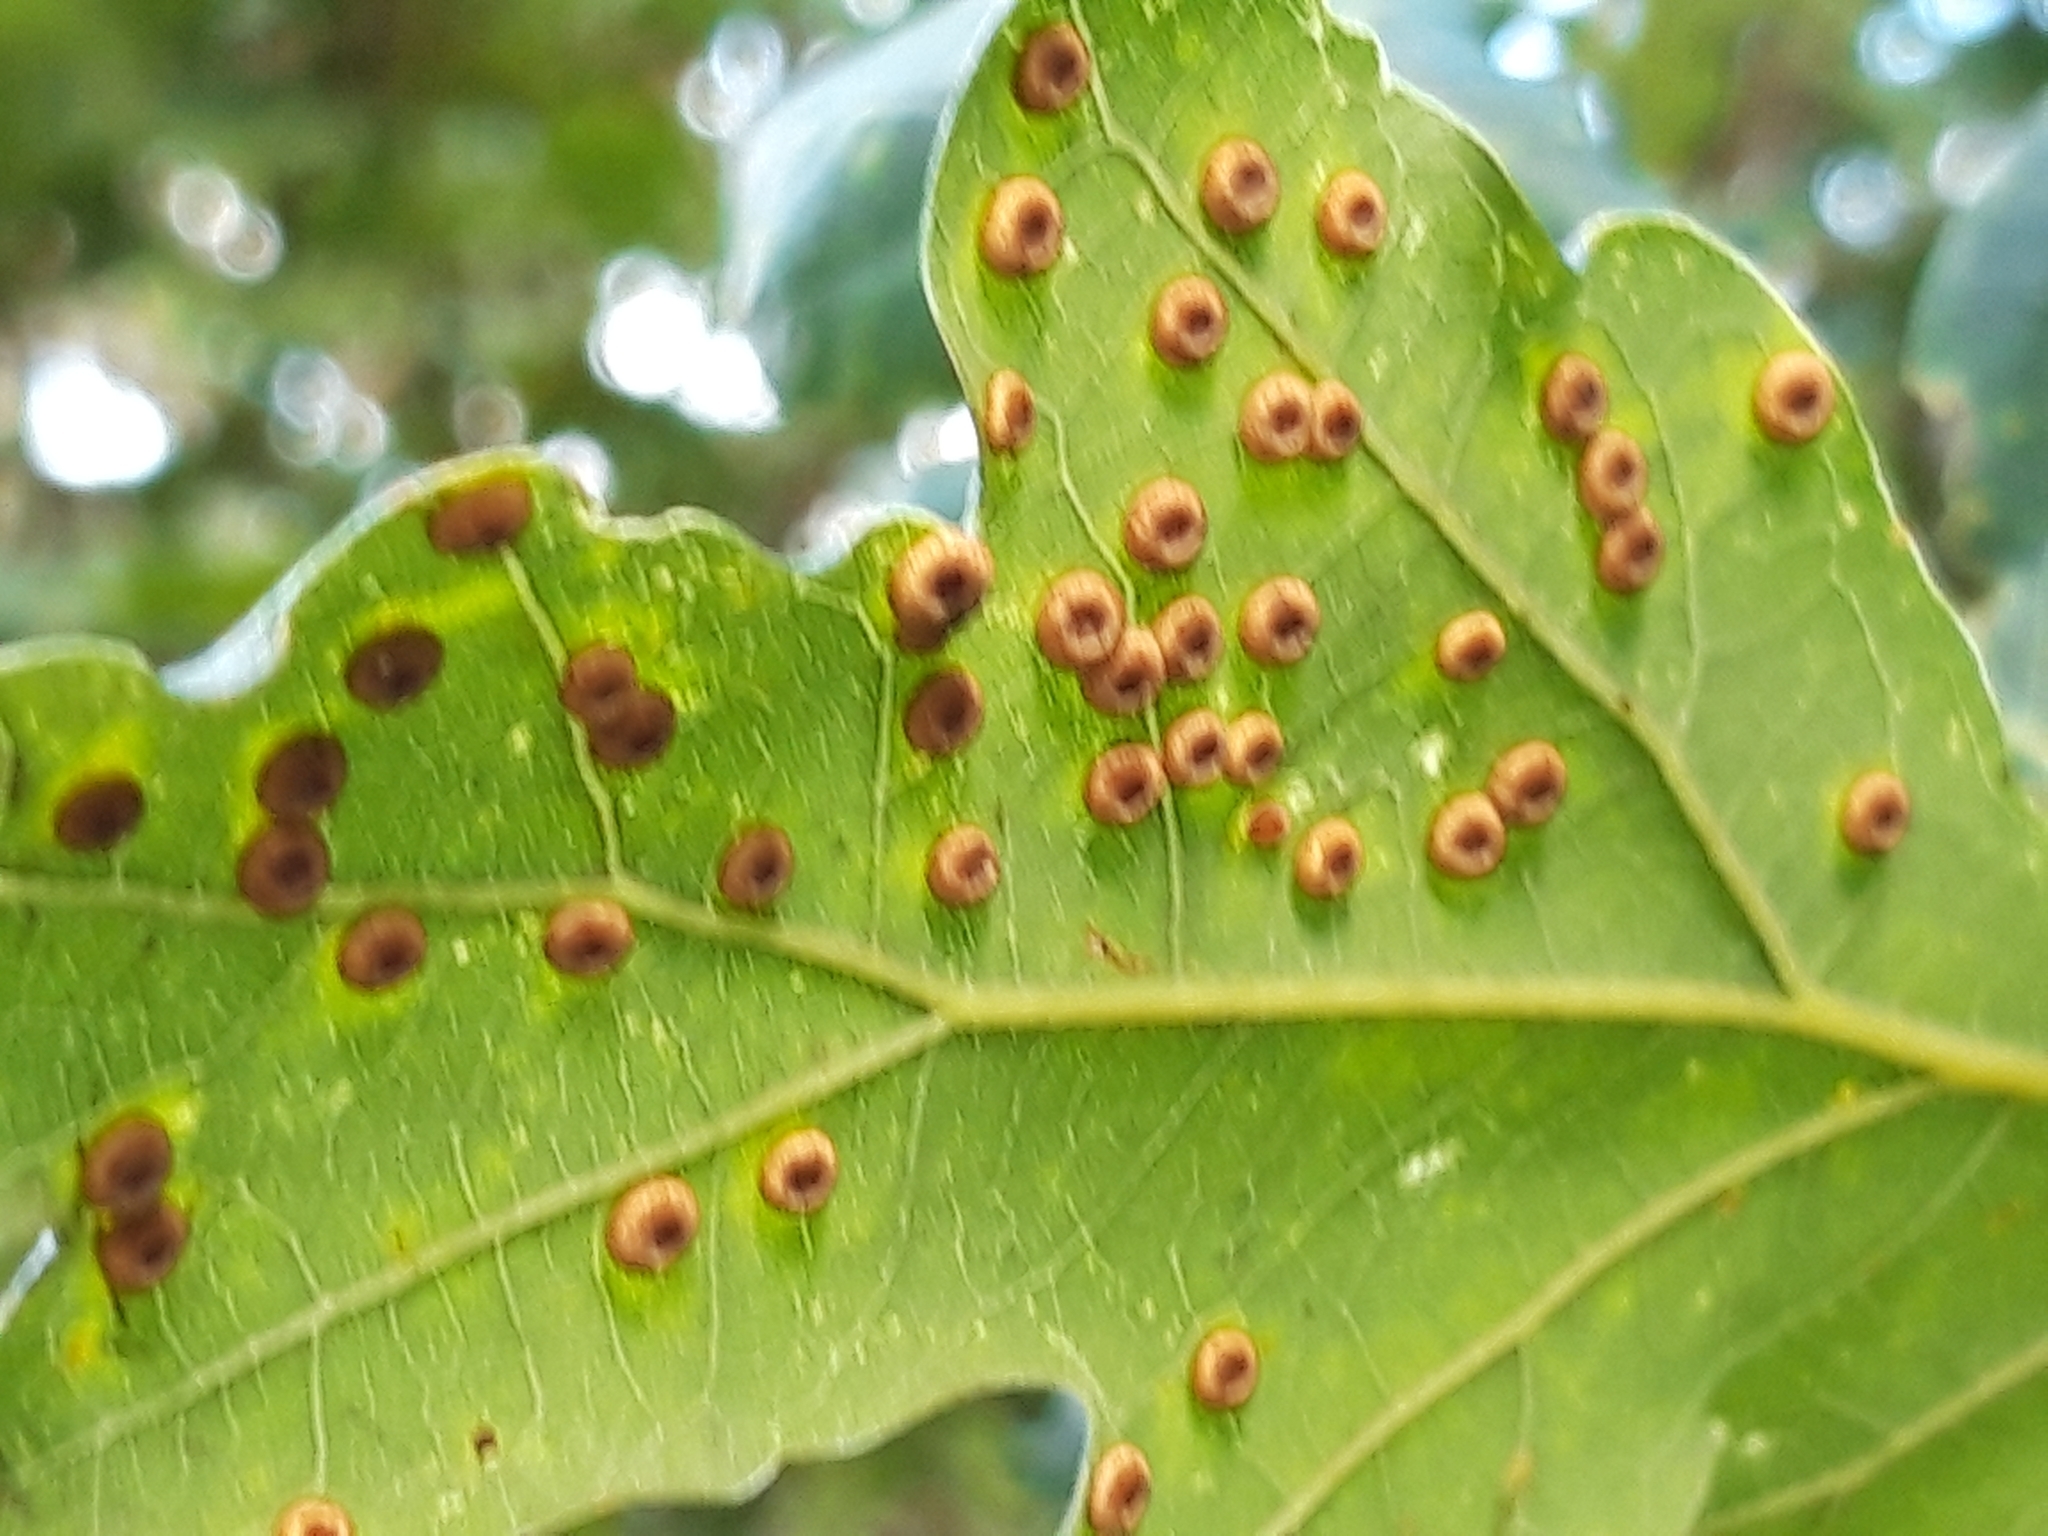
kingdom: Animalia
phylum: Arthropoda
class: Insecta
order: Hymenoptera
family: Cynipidae
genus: Neuroterus
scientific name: Neuroterus numismalis
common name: Silk-button spangle gall
